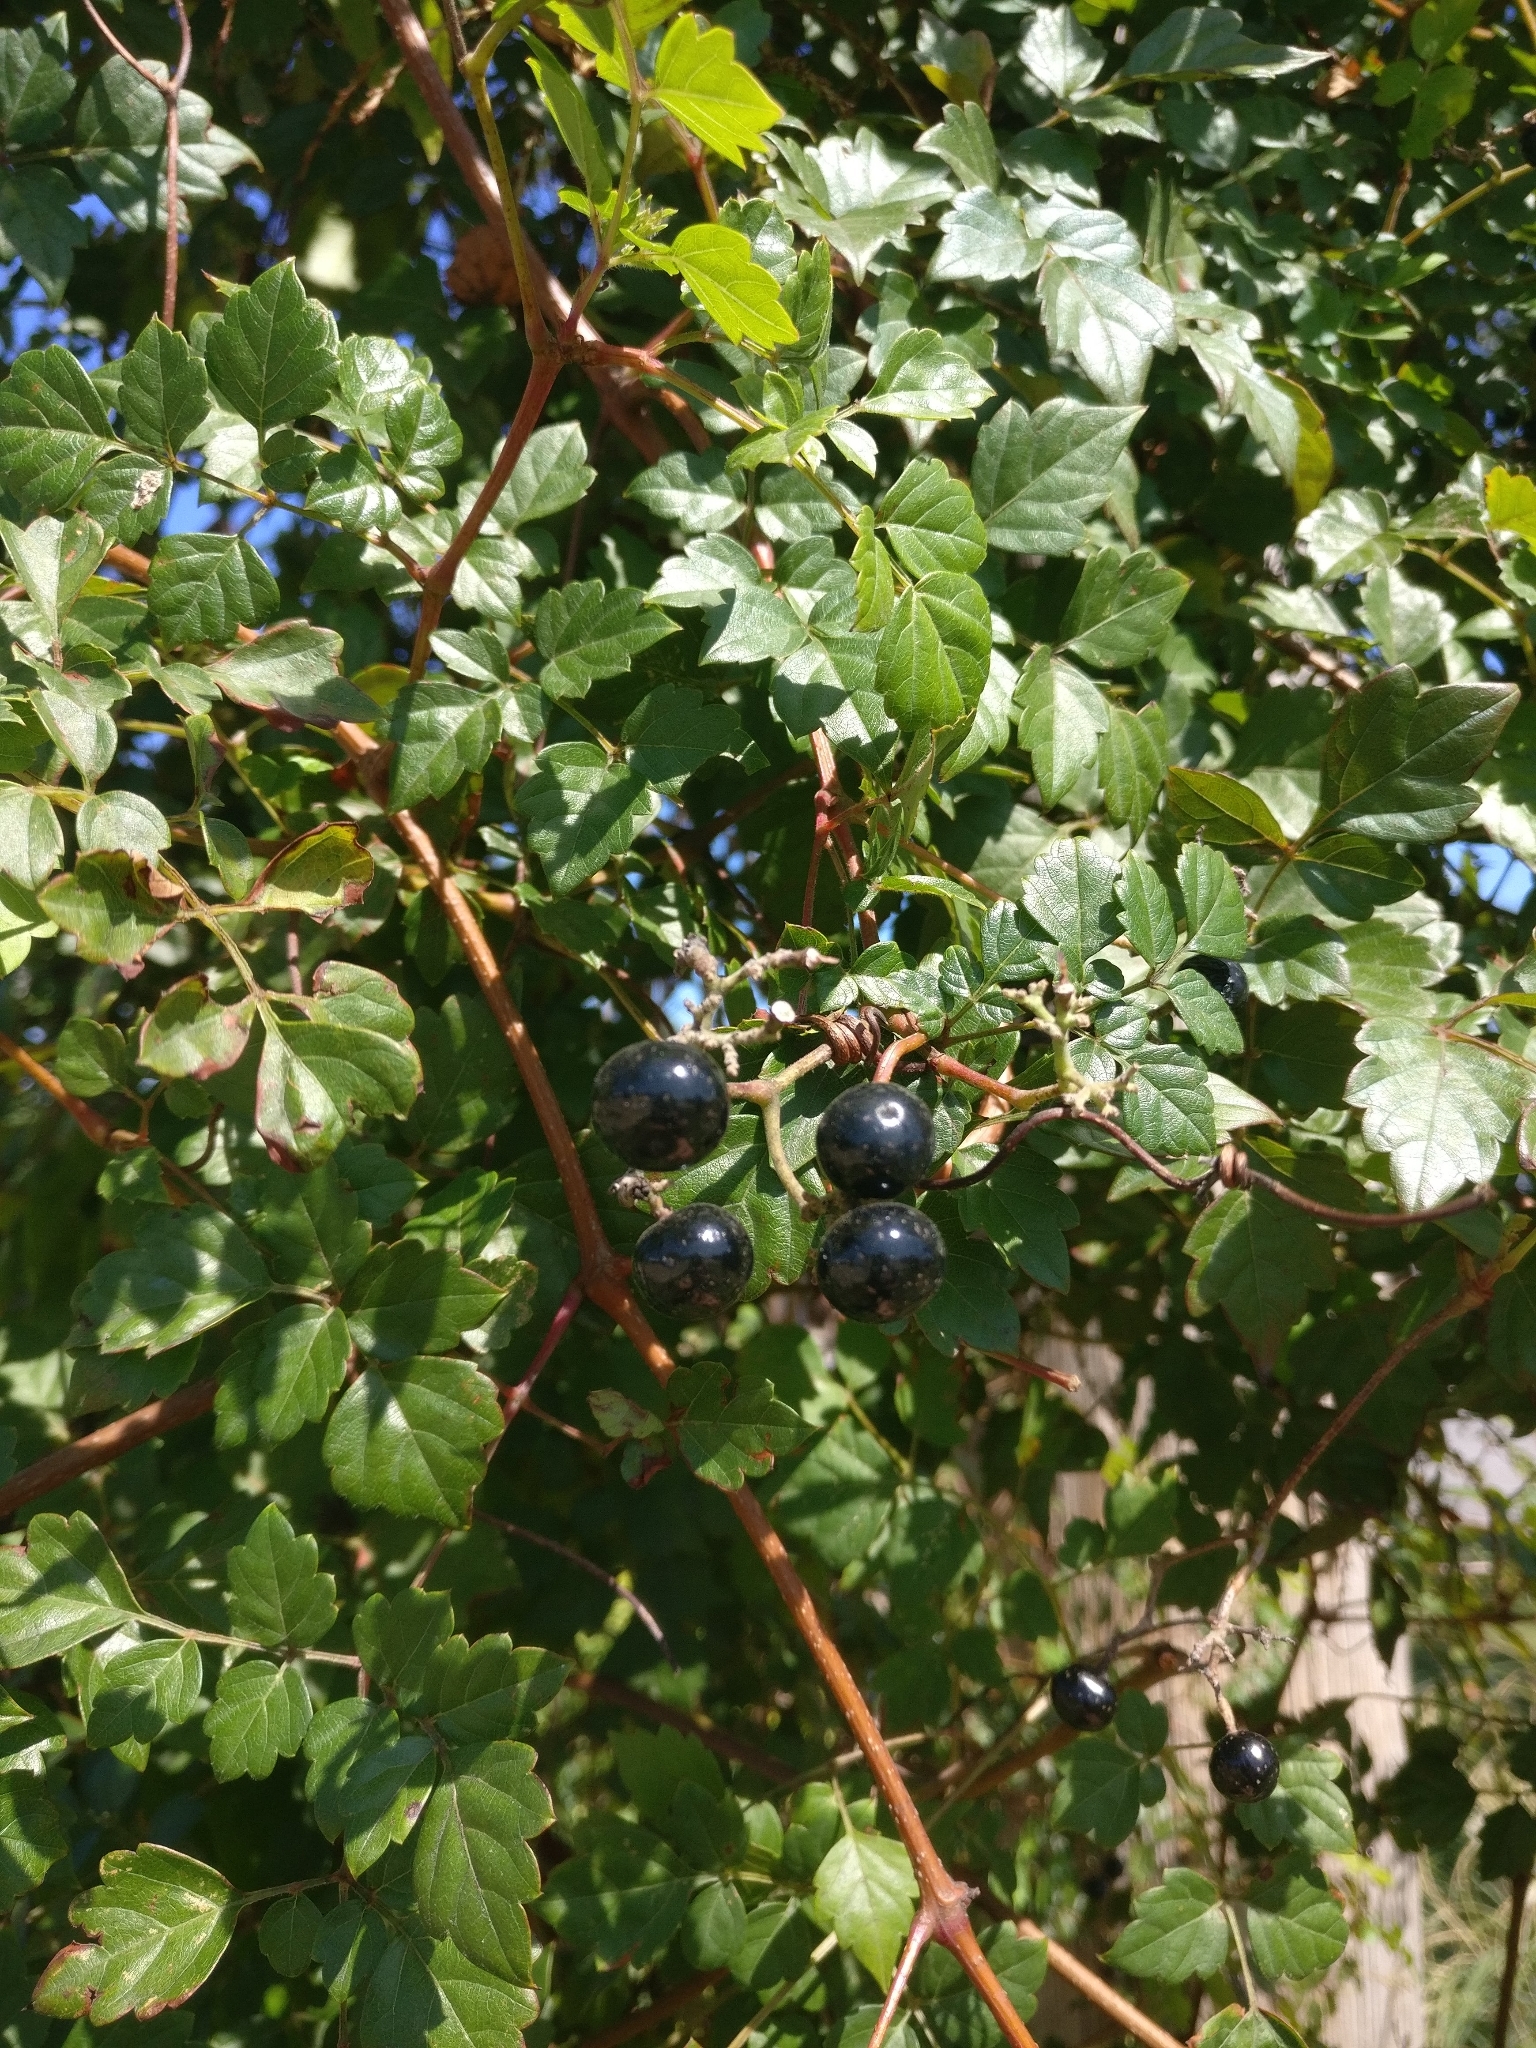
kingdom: Plantae
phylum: Tracheophyta
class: Magnoliopsida
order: Vitales
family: Vitaceae
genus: Nekemias
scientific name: Nekemias arborea
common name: Peppervine
